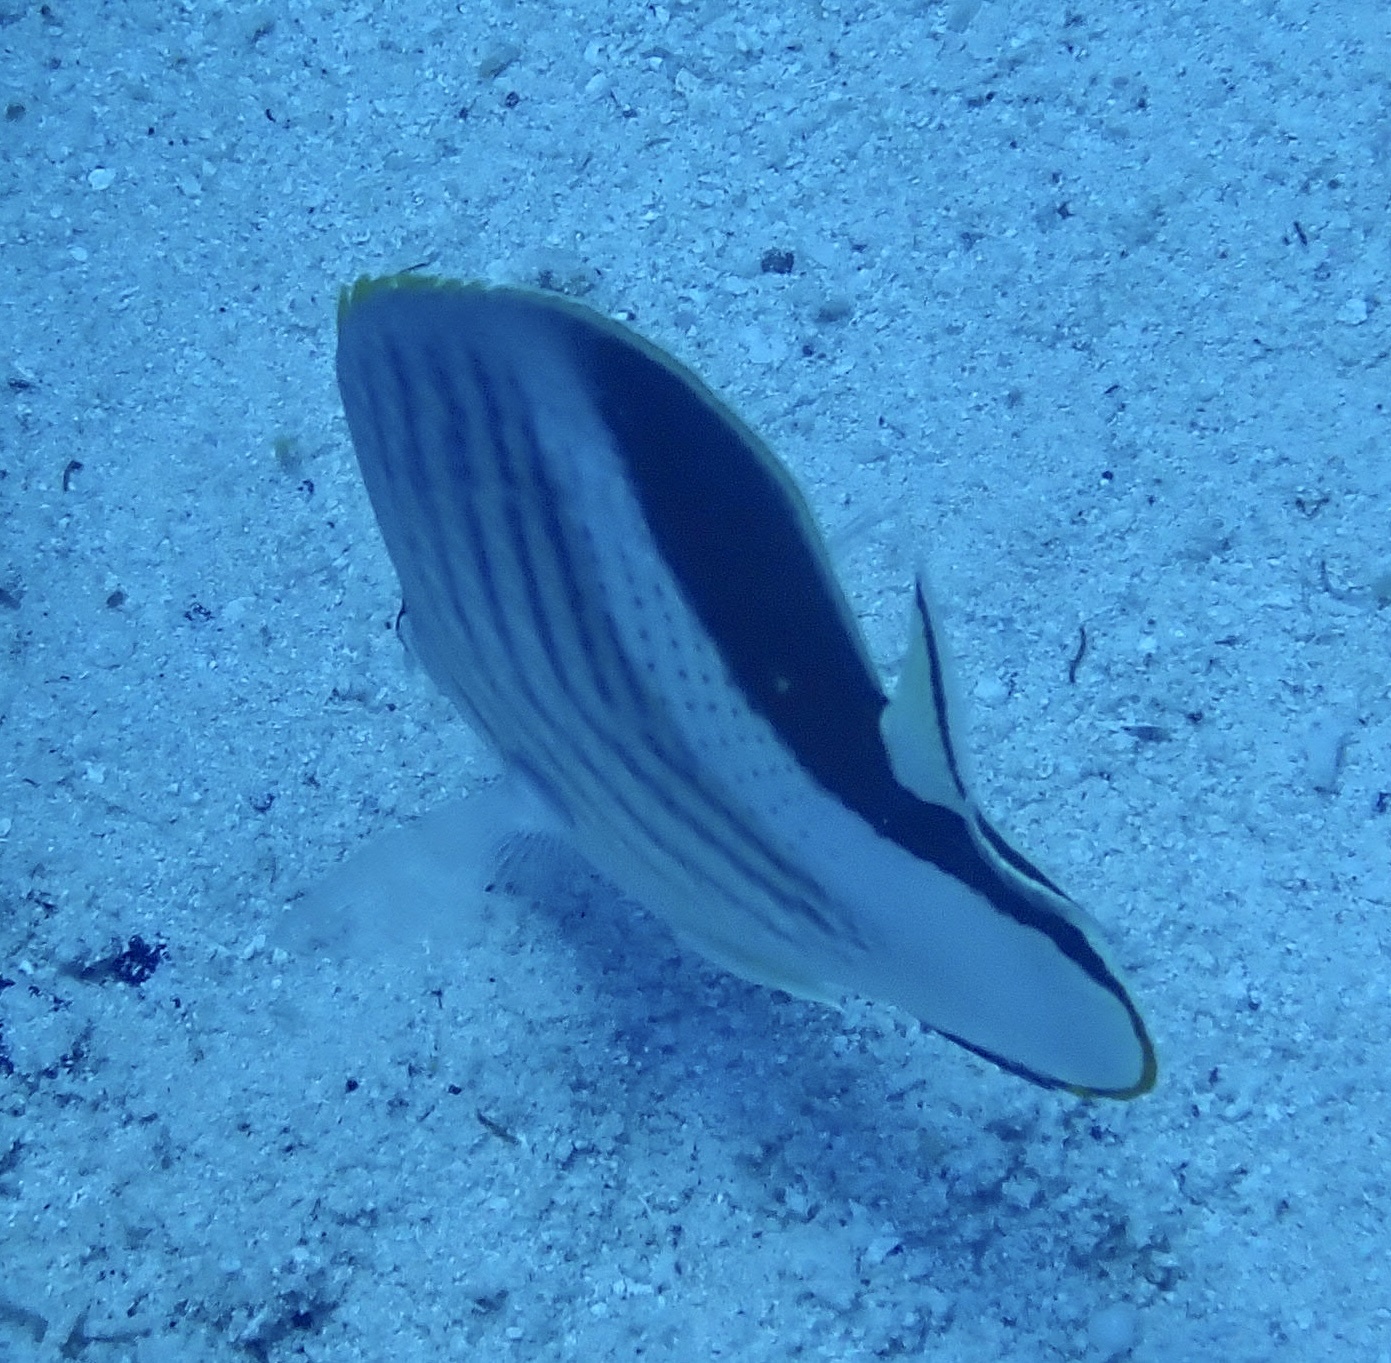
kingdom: Animalia
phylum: Chordata
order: Perciformes
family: Chaetodontidae
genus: Chaetodon
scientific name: Chaetodon paucifasciatus
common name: Crown butterflyfish
